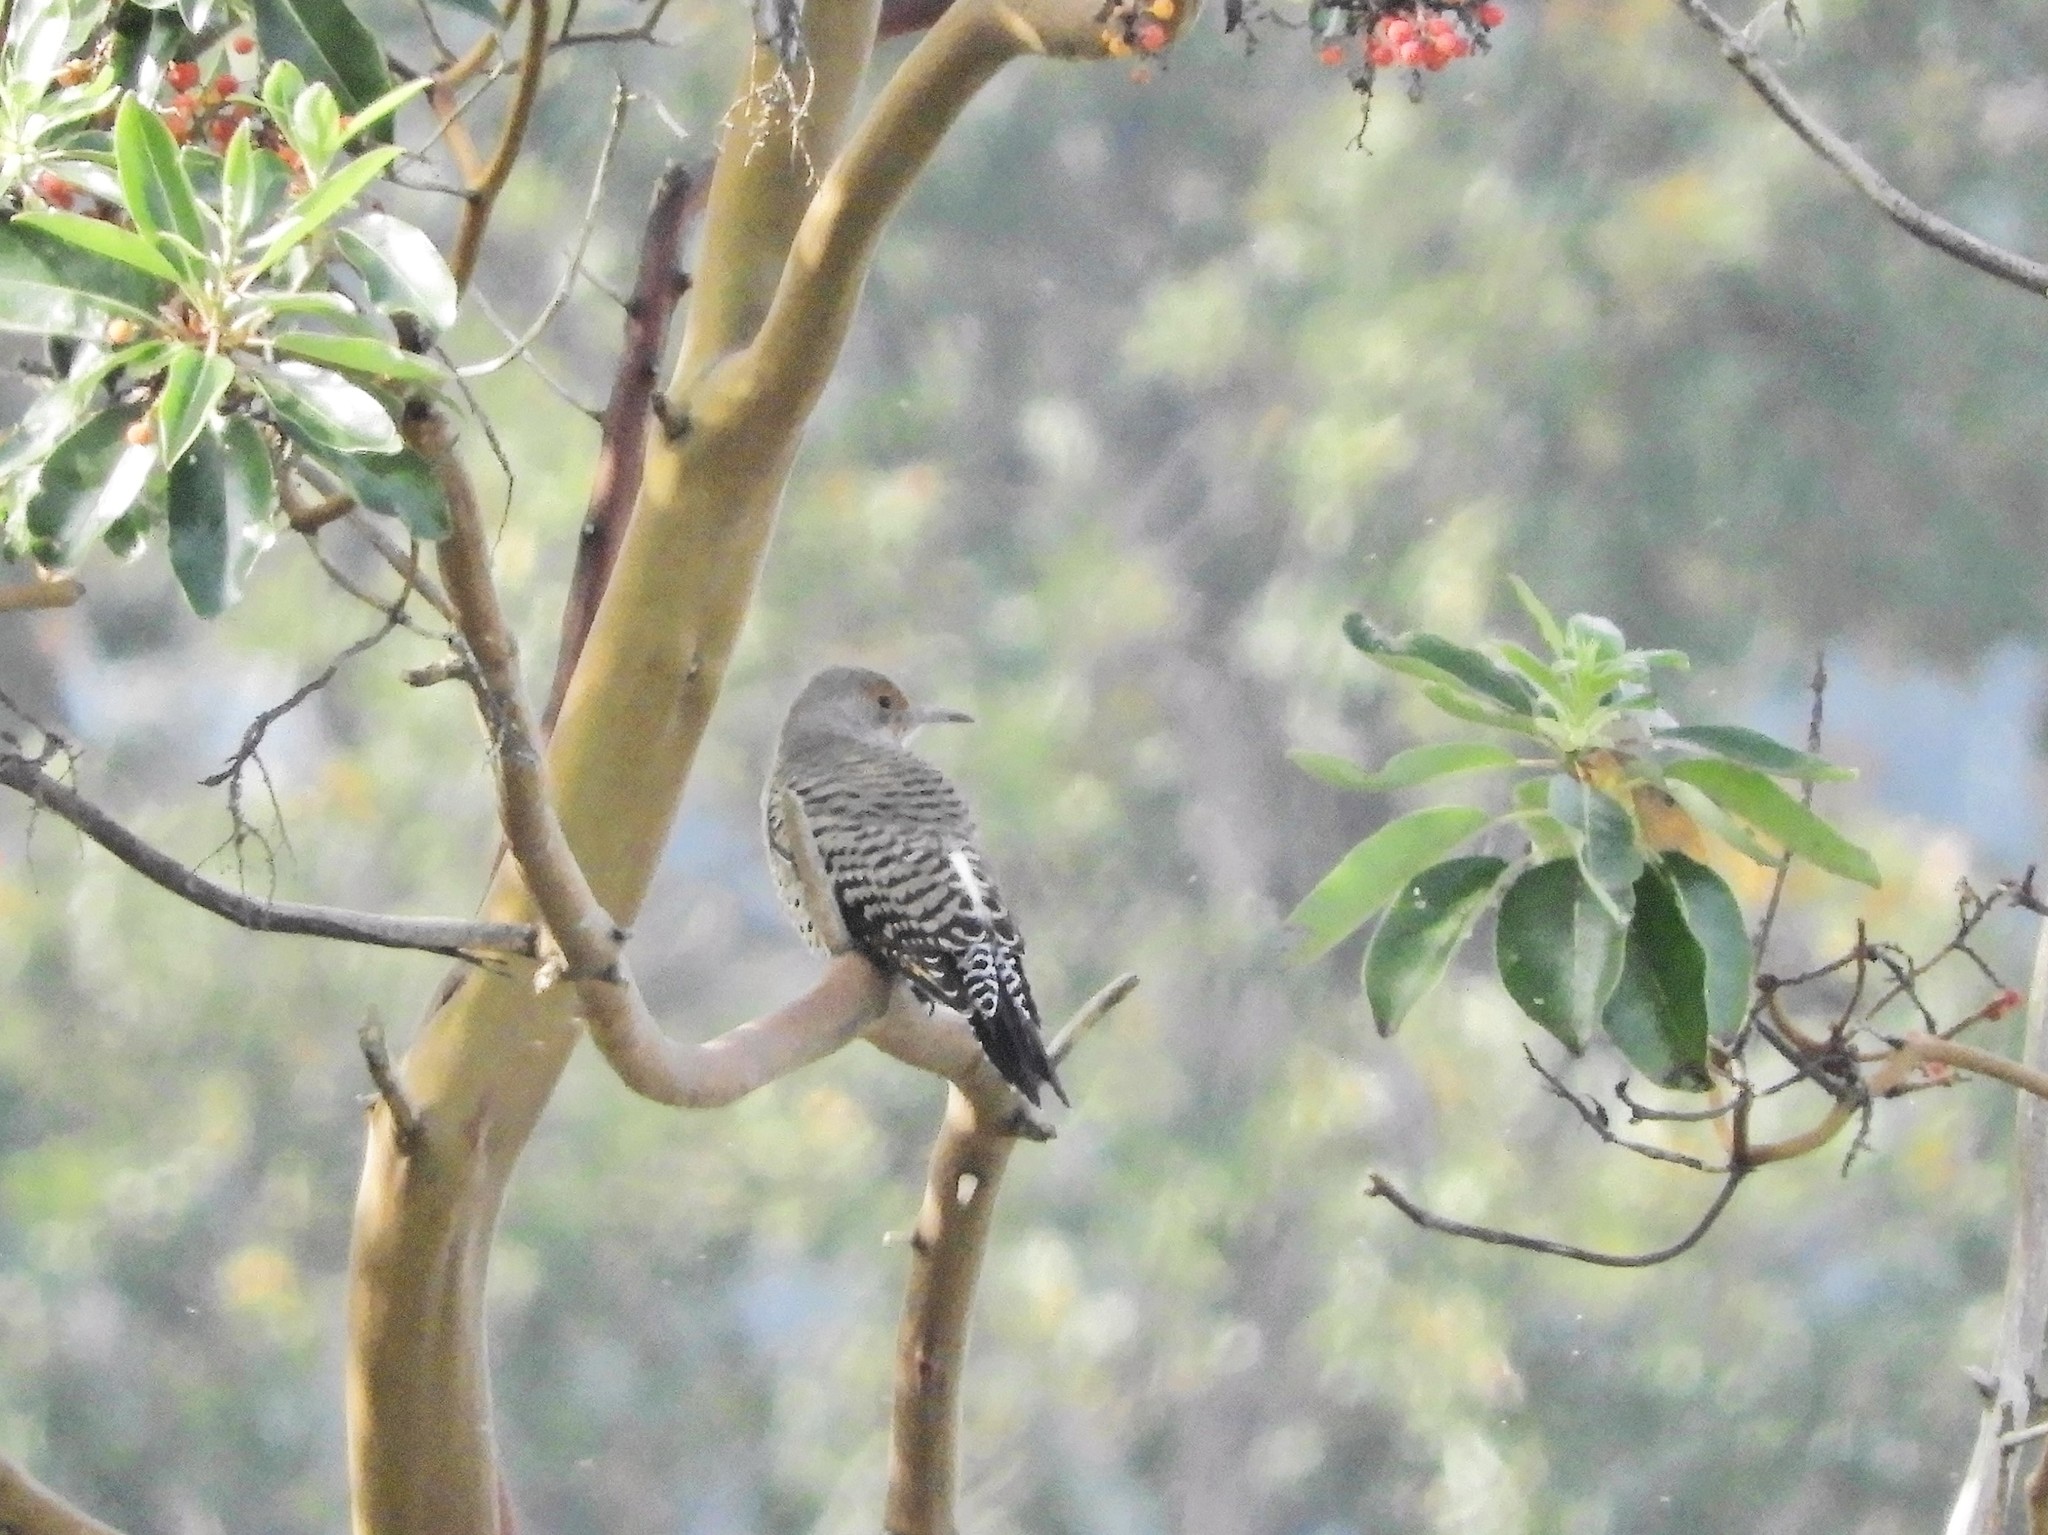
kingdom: Animalia
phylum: Chordata
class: Aves
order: Piciformes
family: Picidae
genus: Colaptes
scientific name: Colaptes auratus
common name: Northern flicker
